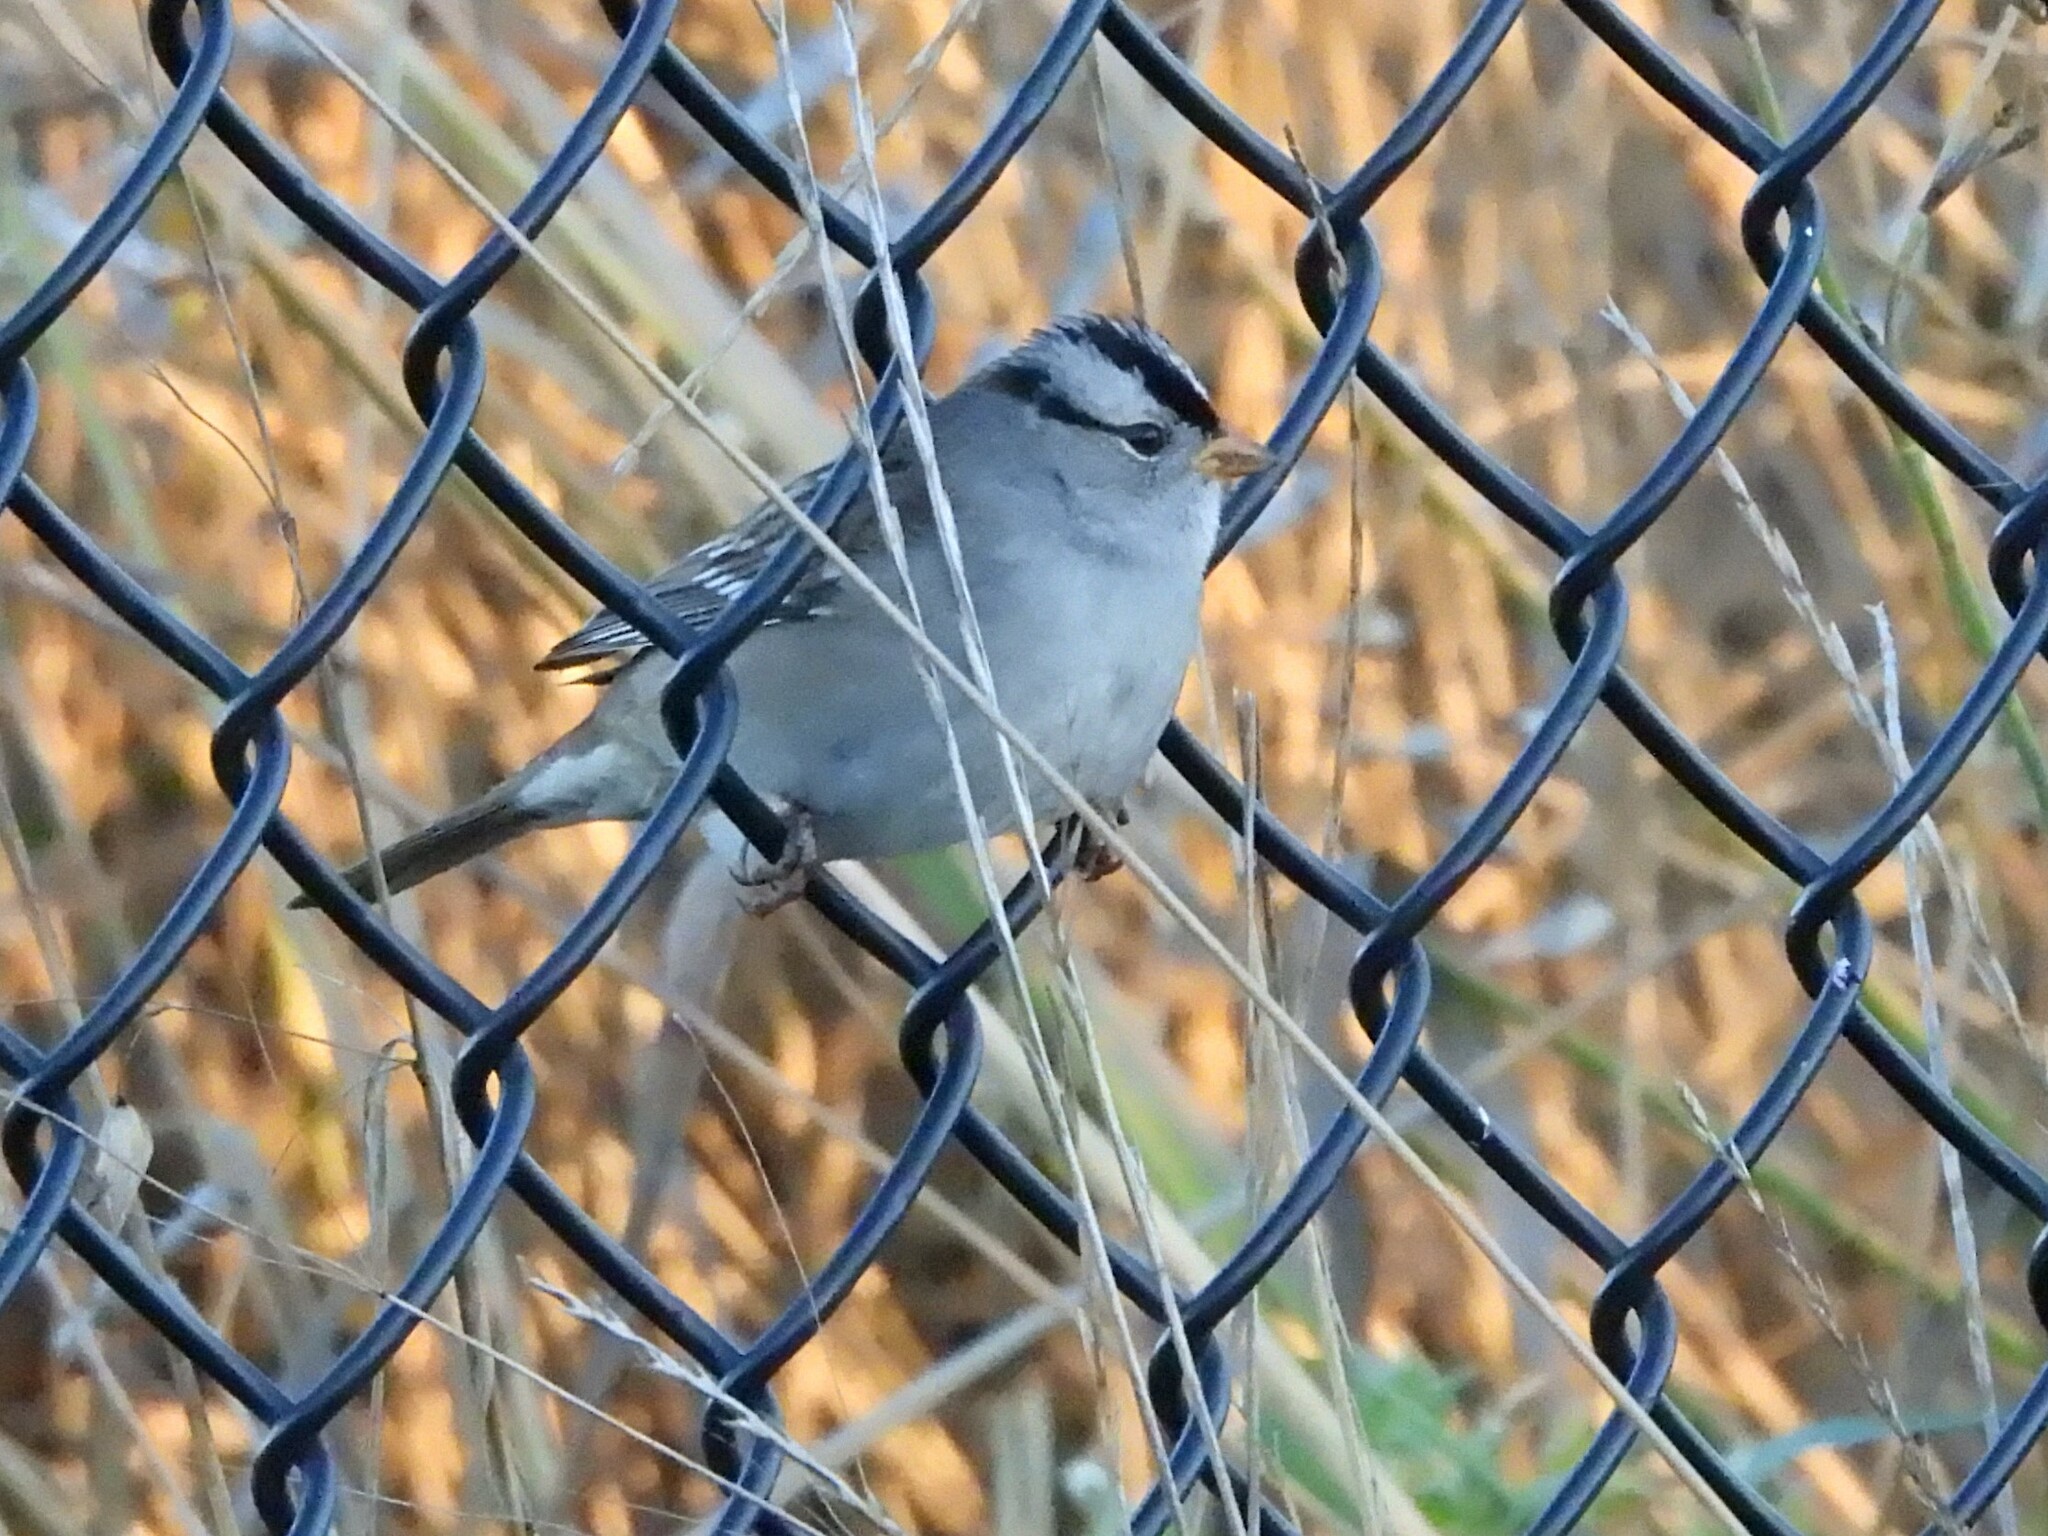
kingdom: Animalia
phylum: Chordata
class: Aves
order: Passeriformes
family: Passerellidae
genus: Zonotrichia
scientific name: Zonotrichia leucophrys
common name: White-crowned sparrow
